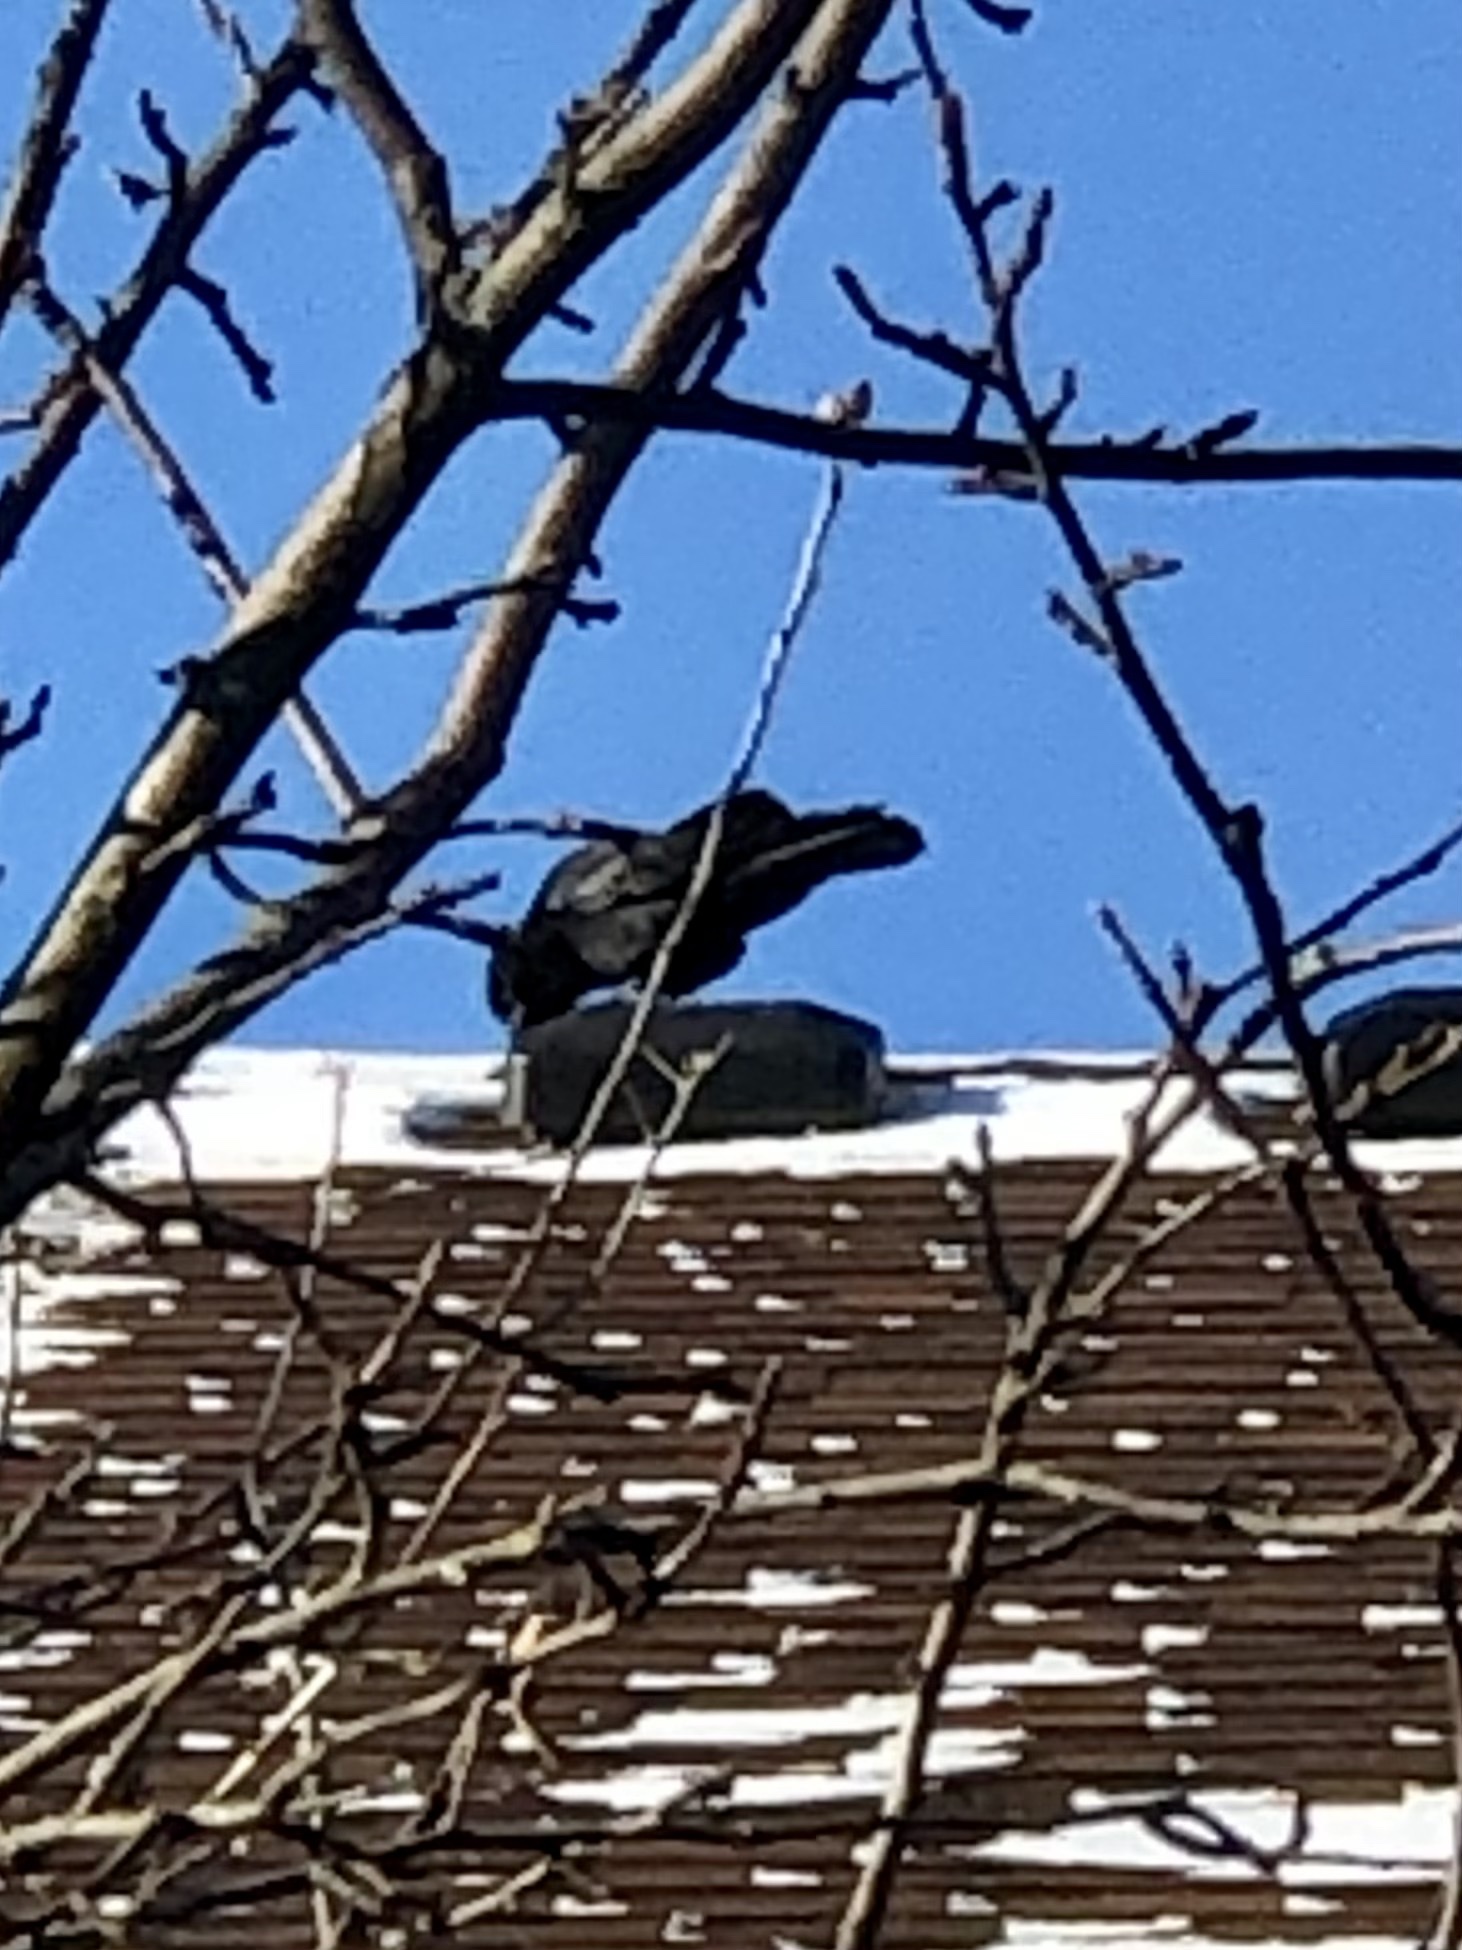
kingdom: Animalia
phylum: Chordata
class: Aves
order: Passeriformes
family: Corvidae
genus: Corvus
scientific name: Corvus brachyrhynchos
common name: American crow
